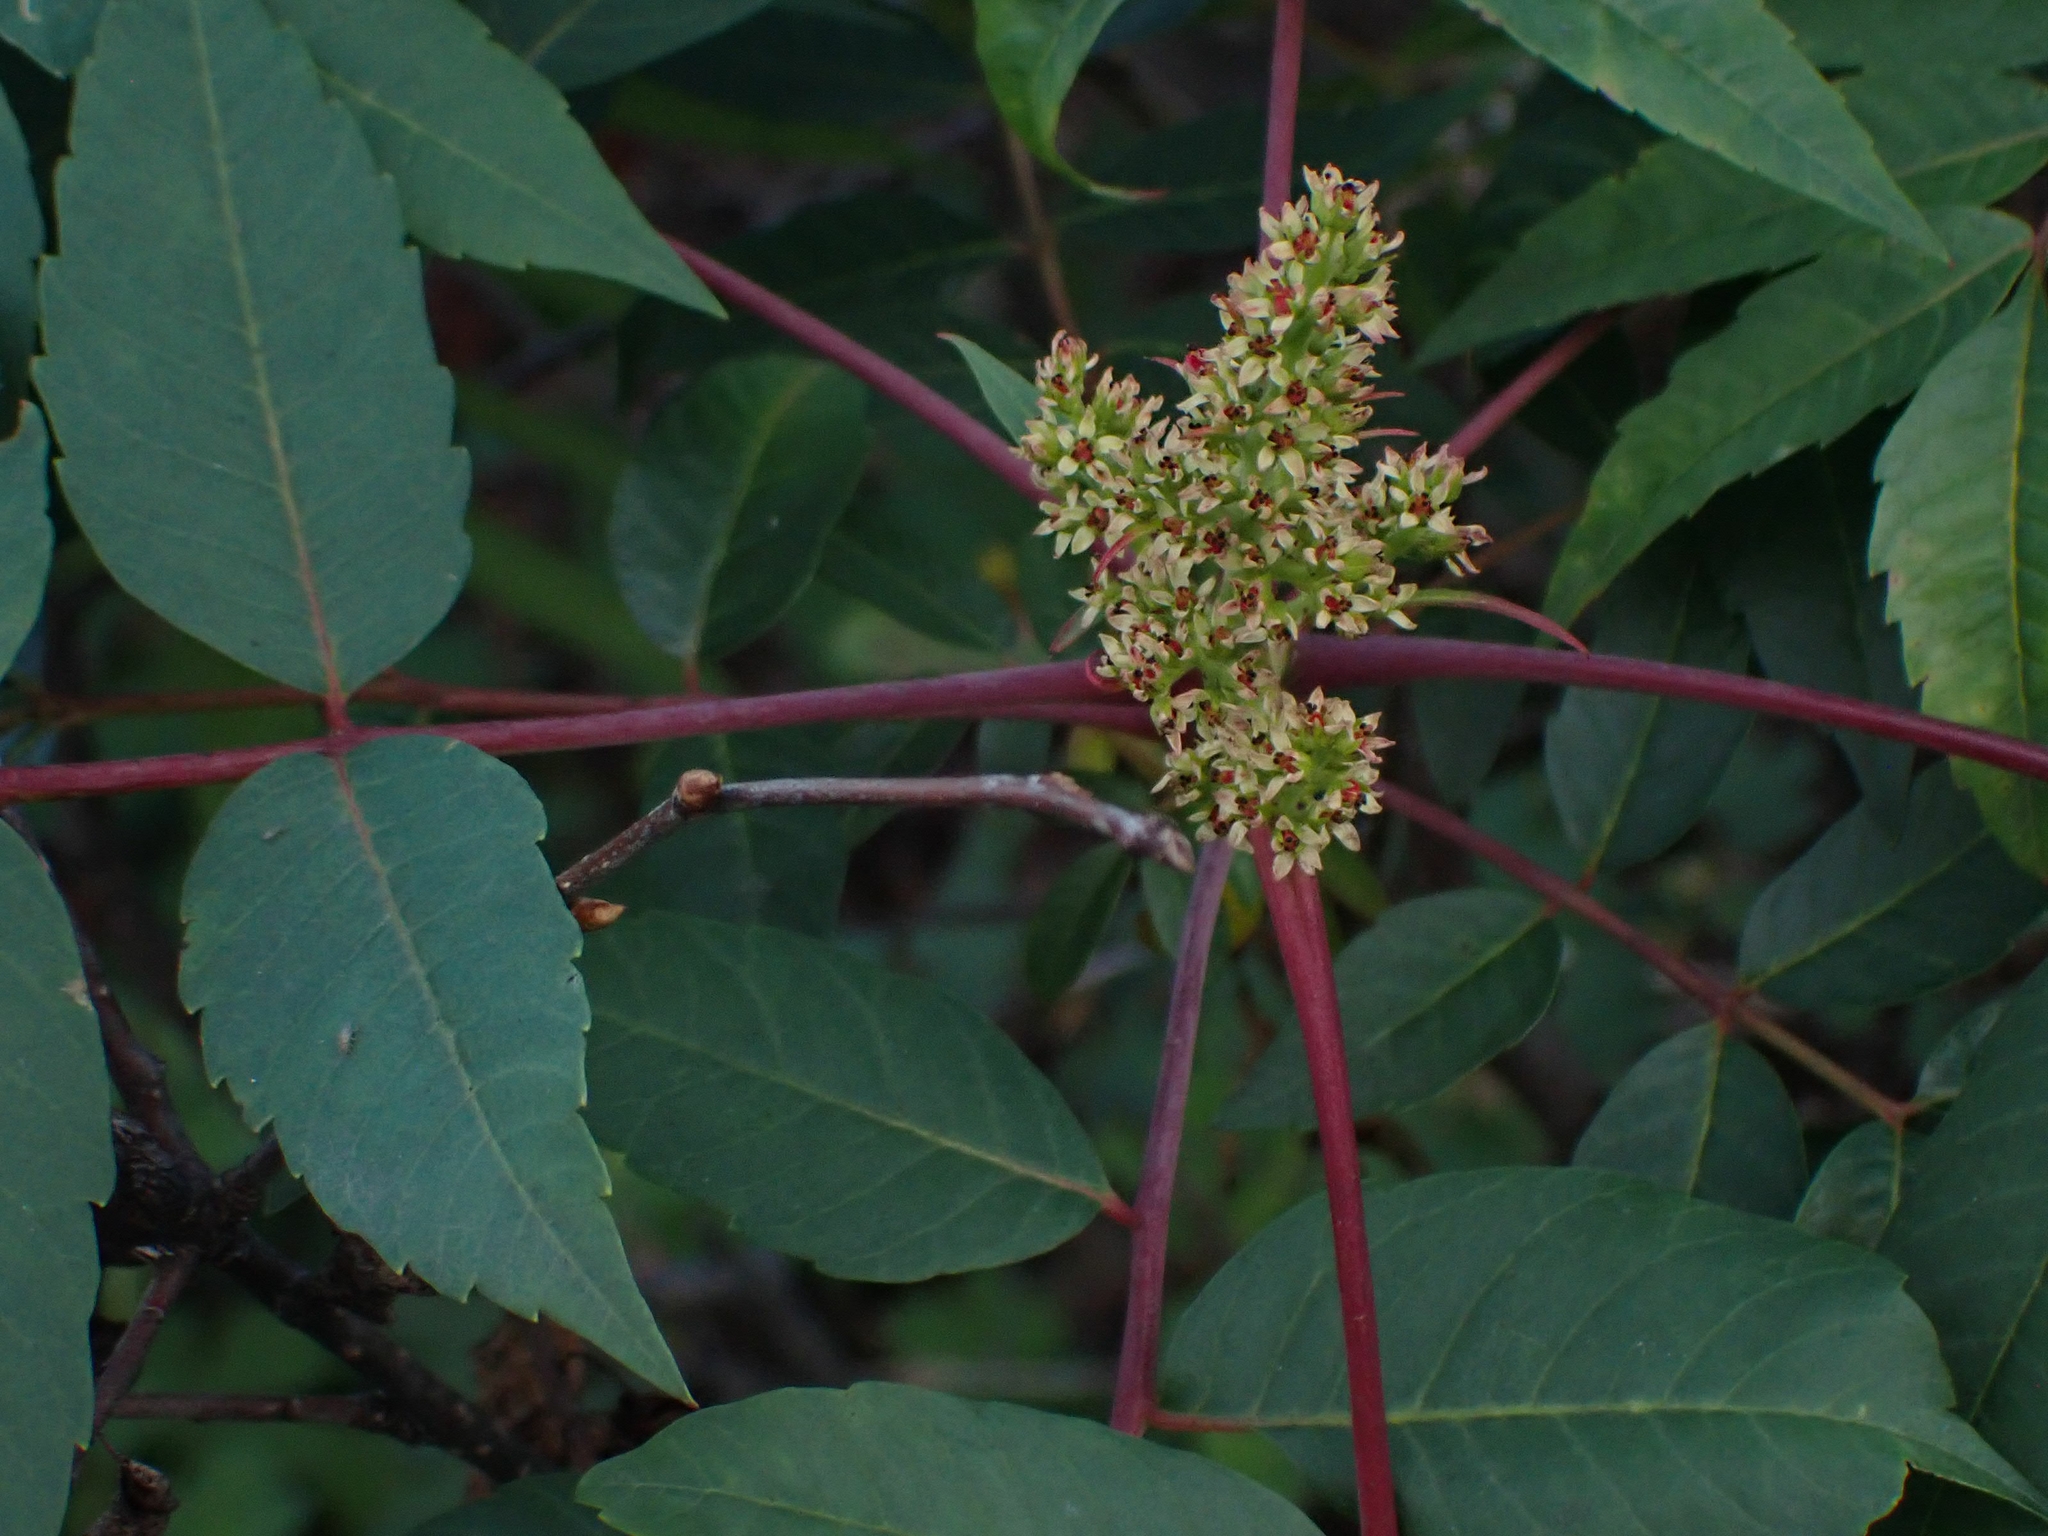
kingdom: Plantae
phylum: Tracheophyta
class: Magnoliopsida
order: Sapindales
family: Anacardiaceae
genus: Rhus
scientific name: Rhus glabra
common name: Scarlet sumac
